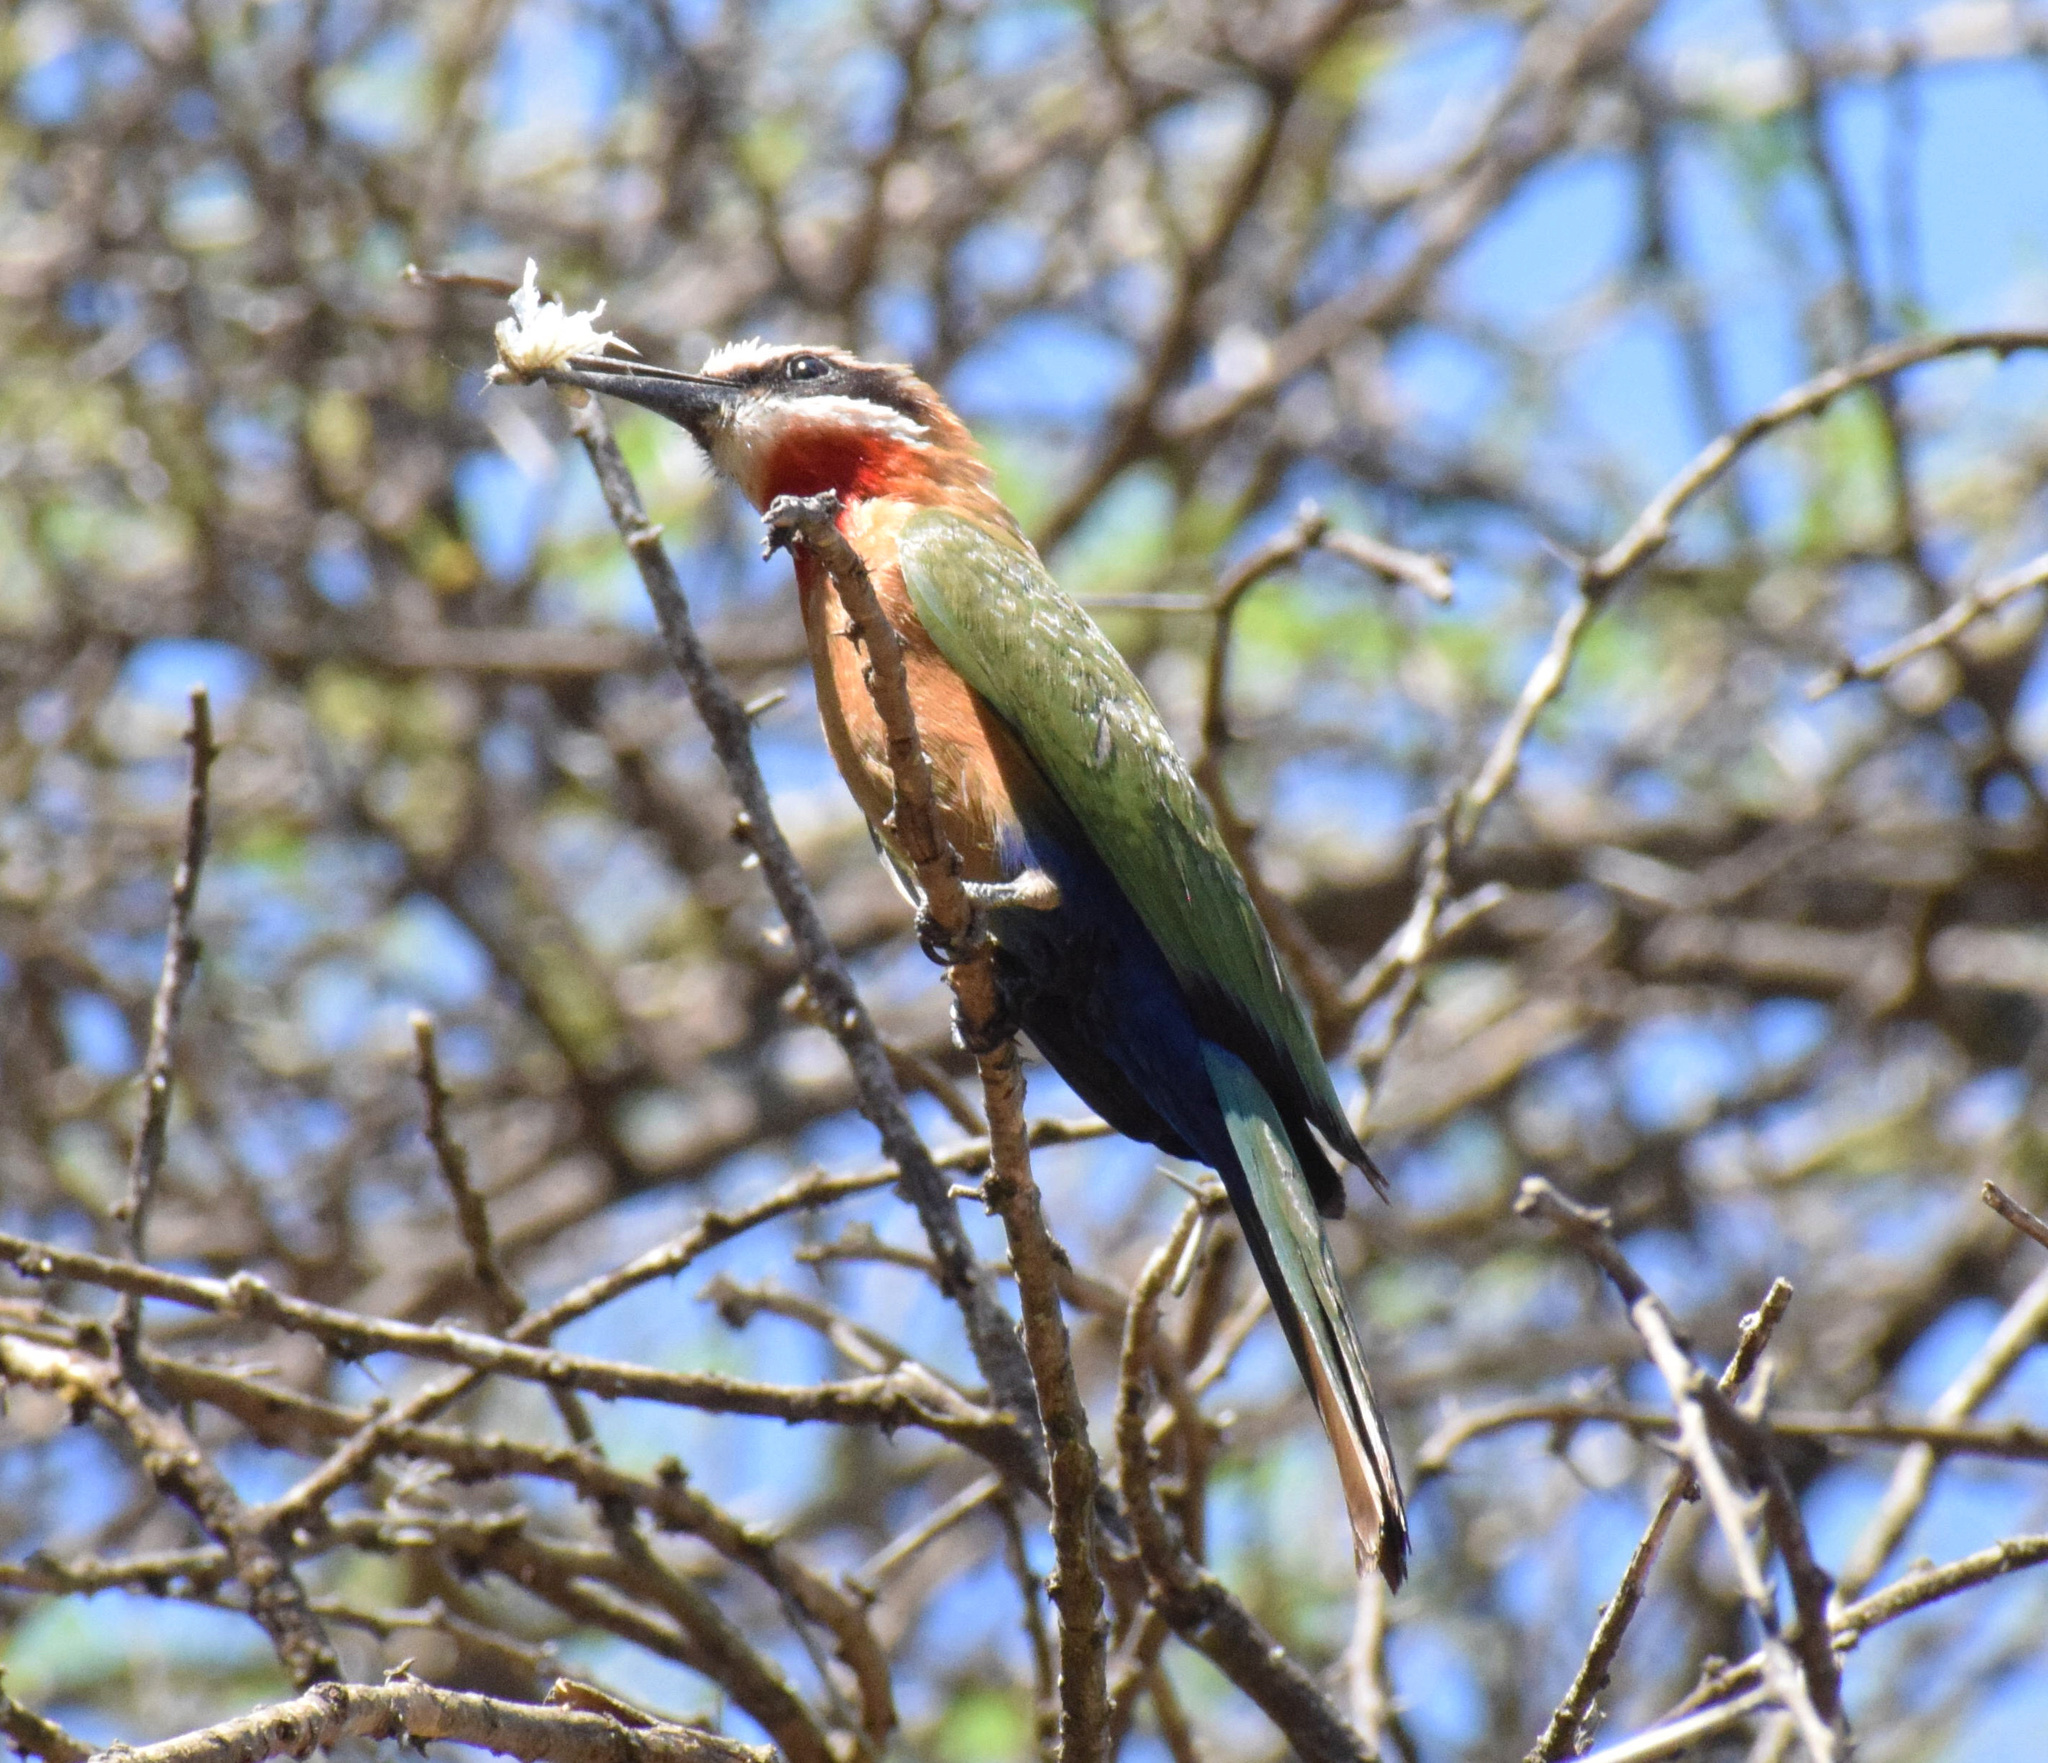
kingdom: Animalia
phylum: Chordata
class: Aves
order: Coraciiformes
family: Meropidae
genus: Merops
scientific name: Merops bullockoides
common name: White-fronted bee-eater
